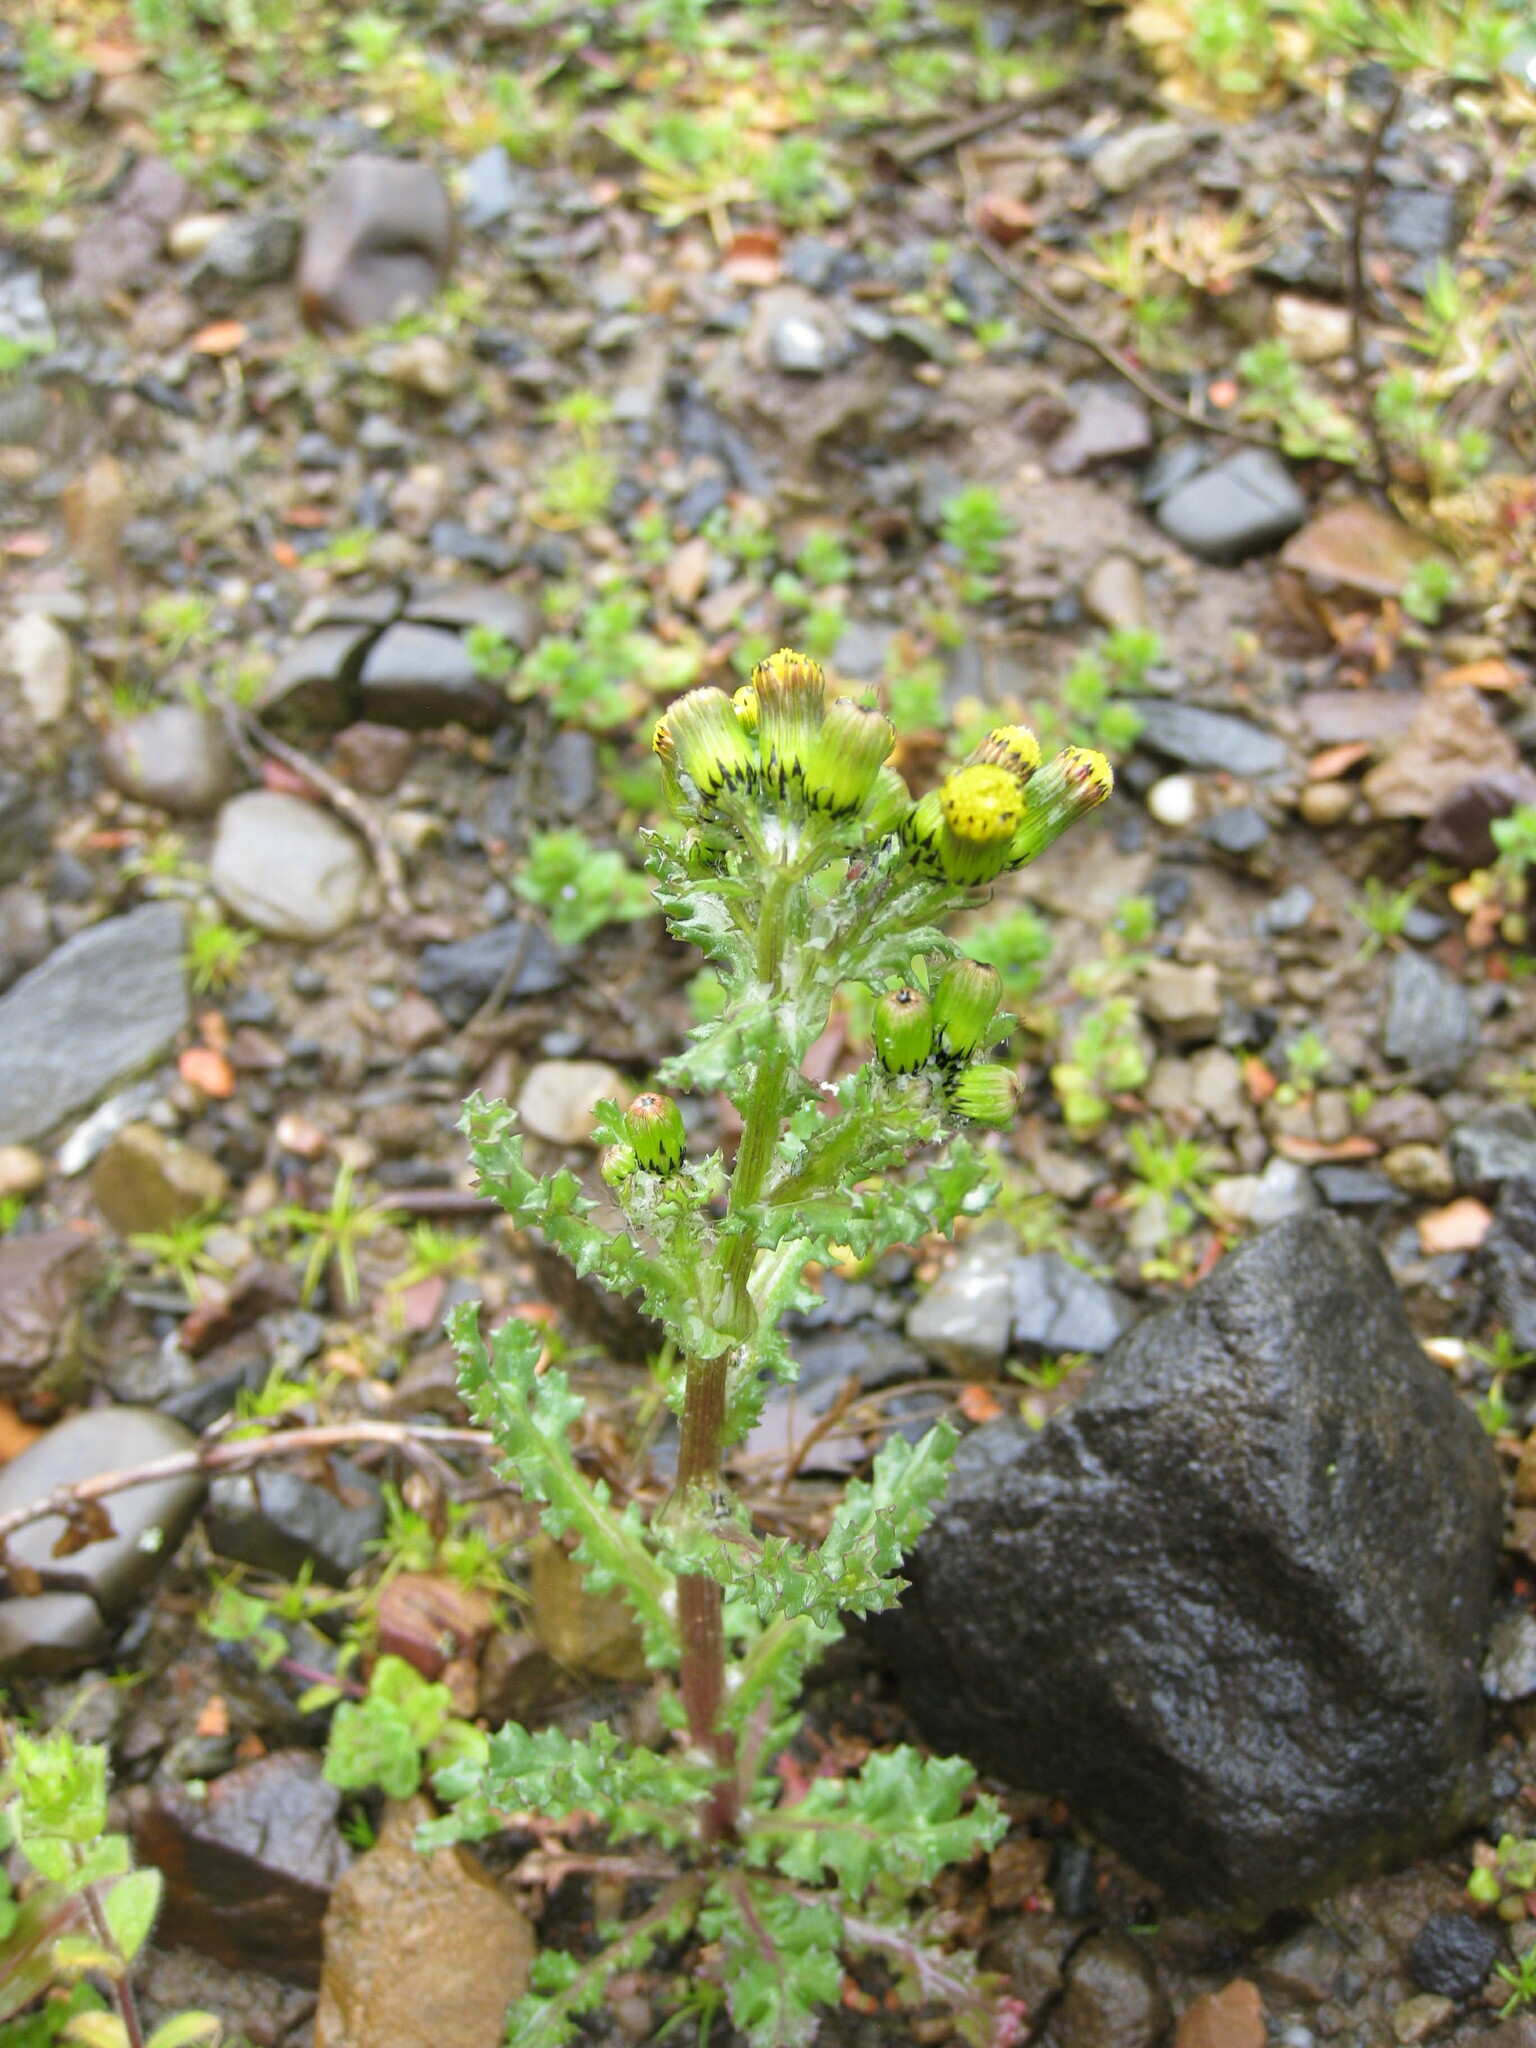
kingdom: Plantae
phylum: Tracheophyta
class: Magnoliopsida
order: Asterales
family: Asteraceae
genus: Senecio
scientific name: Senecio vulgaris
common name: Old-man-in-the-spring
